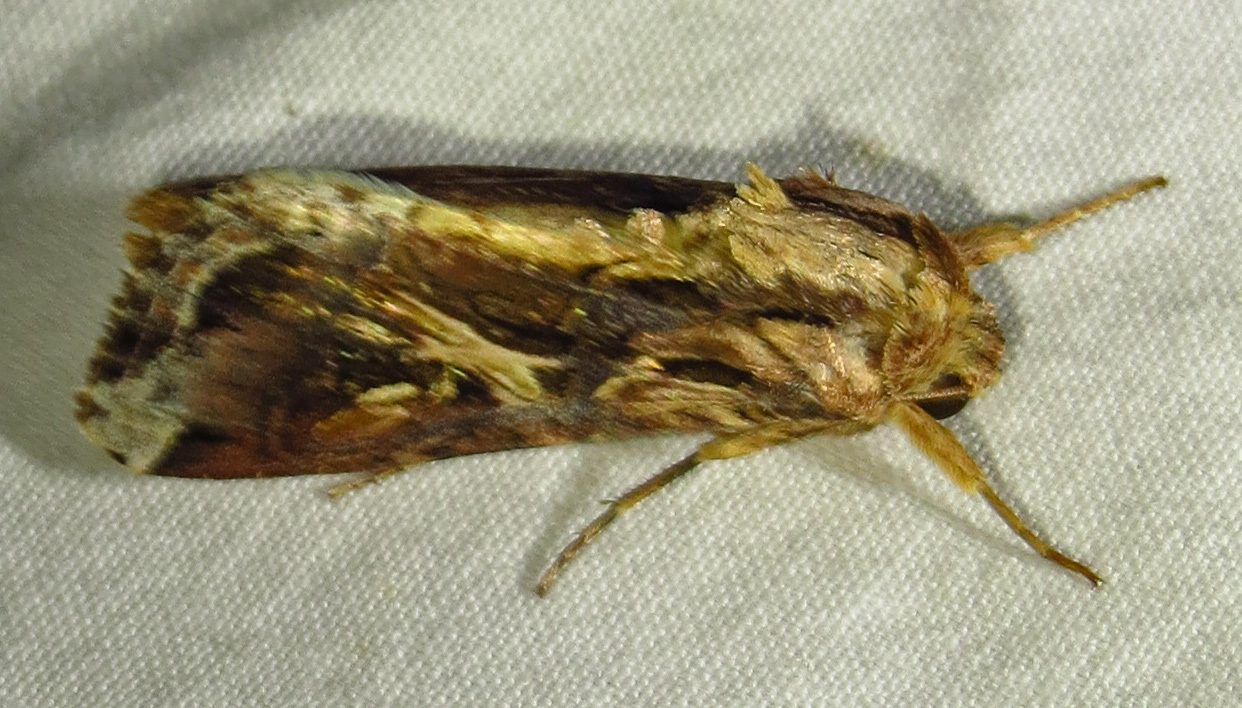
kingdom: Animalia
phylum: Arthropoda
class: Insecta
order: Lepidoptera
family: Noctuidae
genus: Spodoptera
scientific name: Spodoptera dolichos
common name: Sweetpotato armyworm
